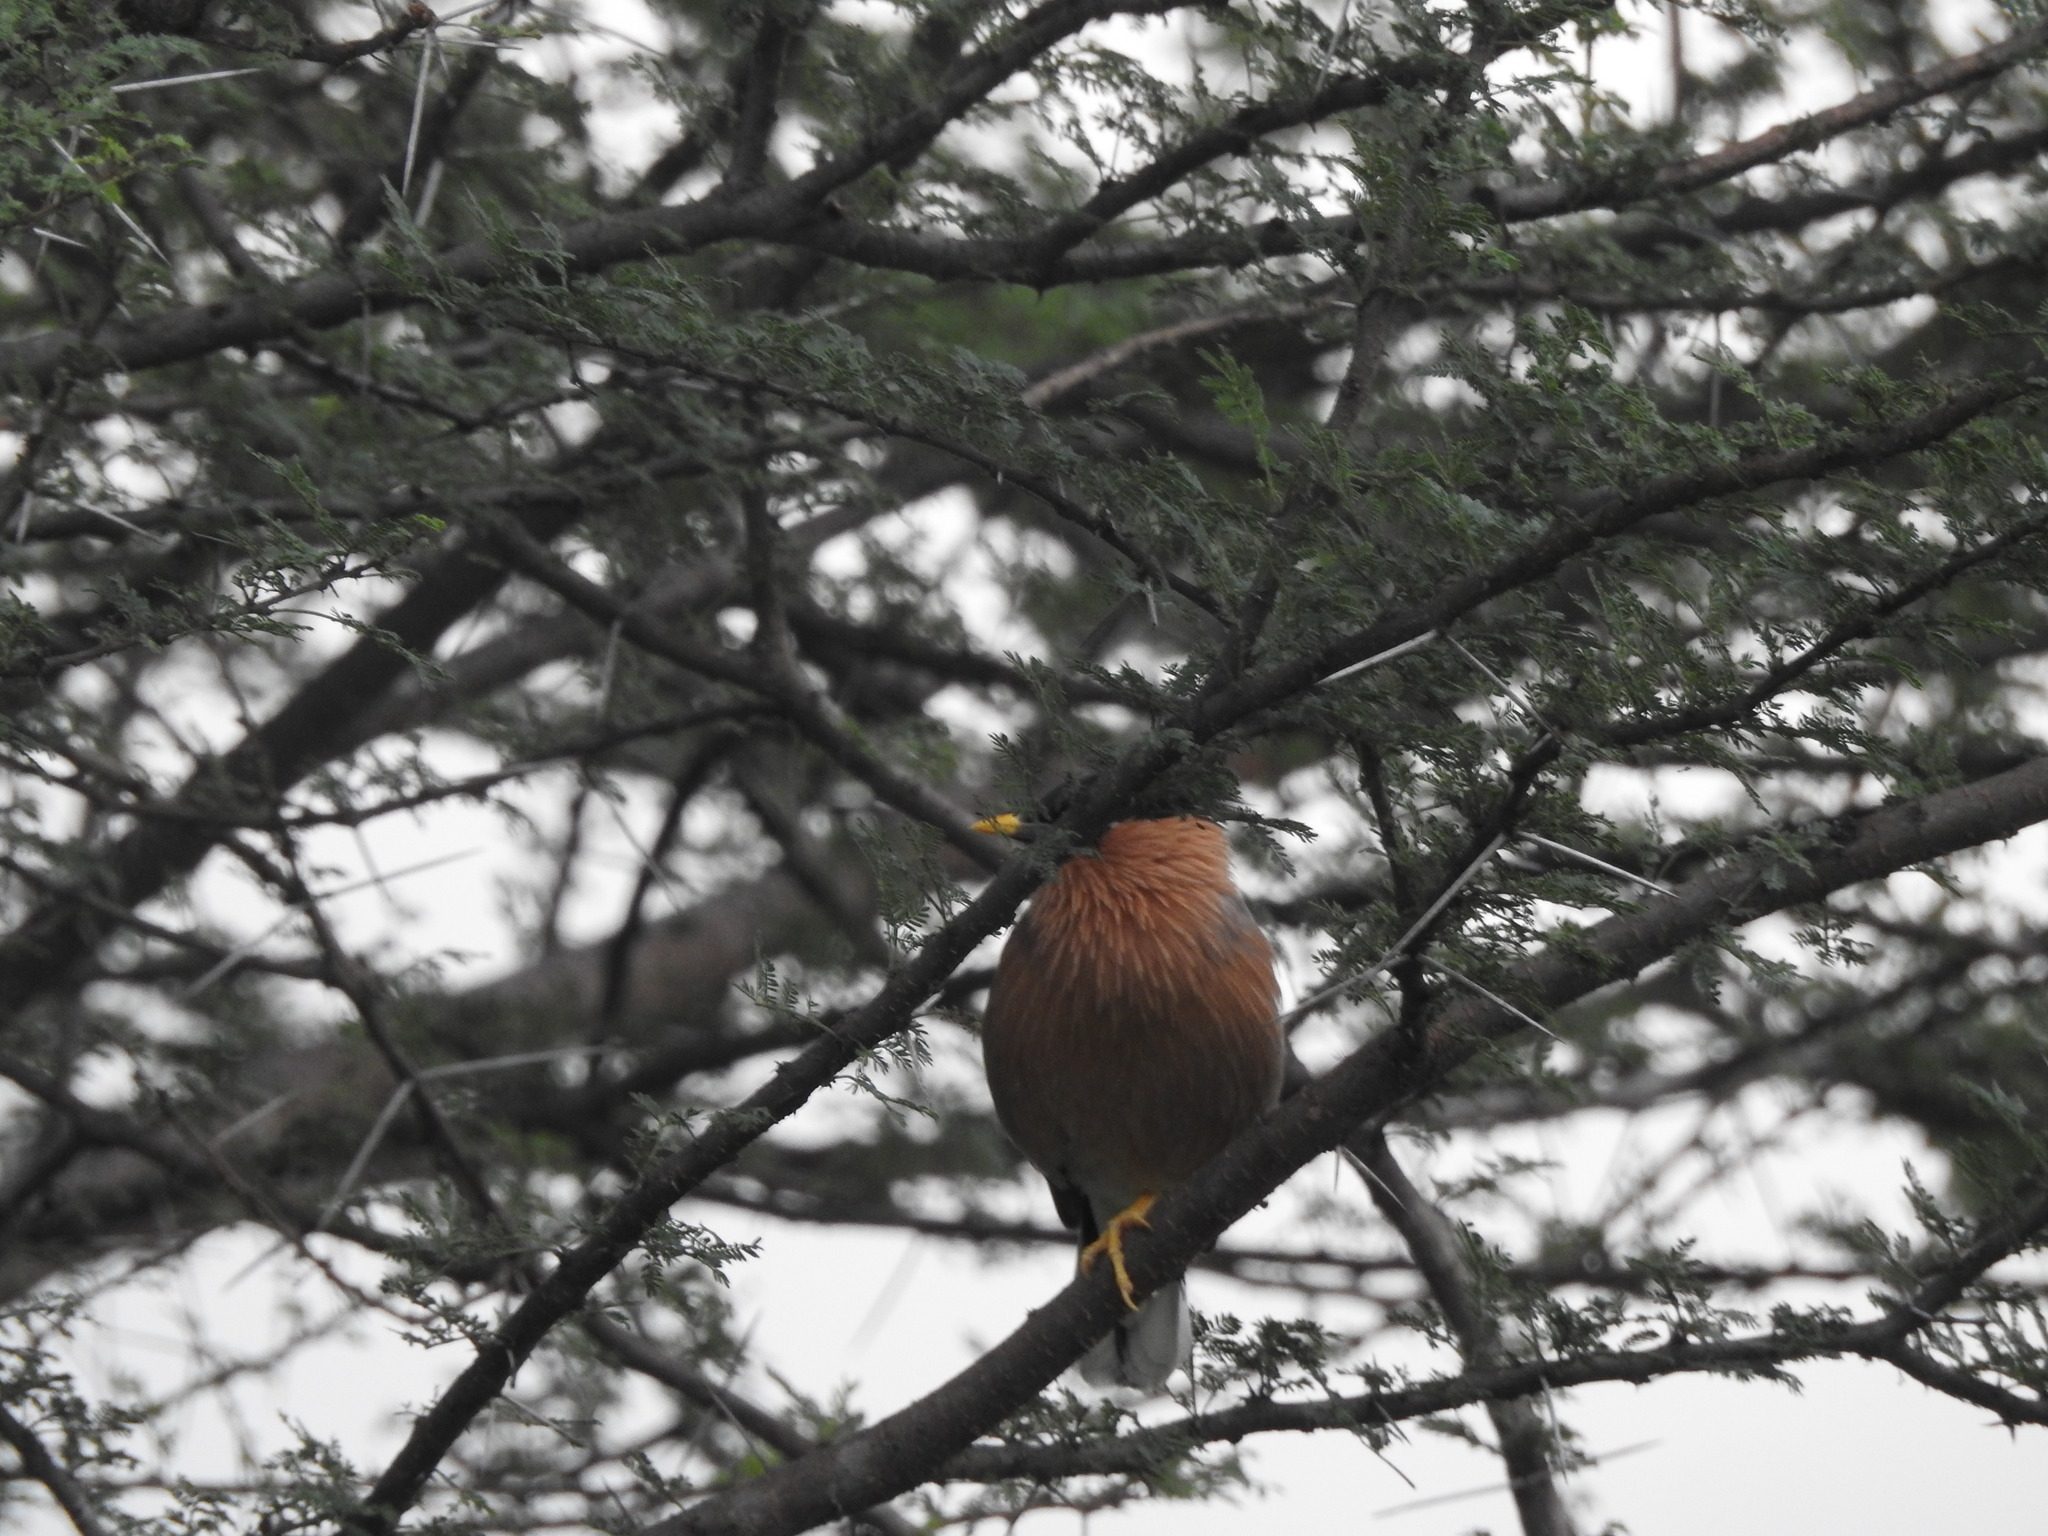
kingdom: Animalia
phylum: Chordata
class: Aves
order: Passeriformes
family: Sturnidae
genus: Sturnia
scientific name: Sturnia pagodarum
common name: Brahminy starling
